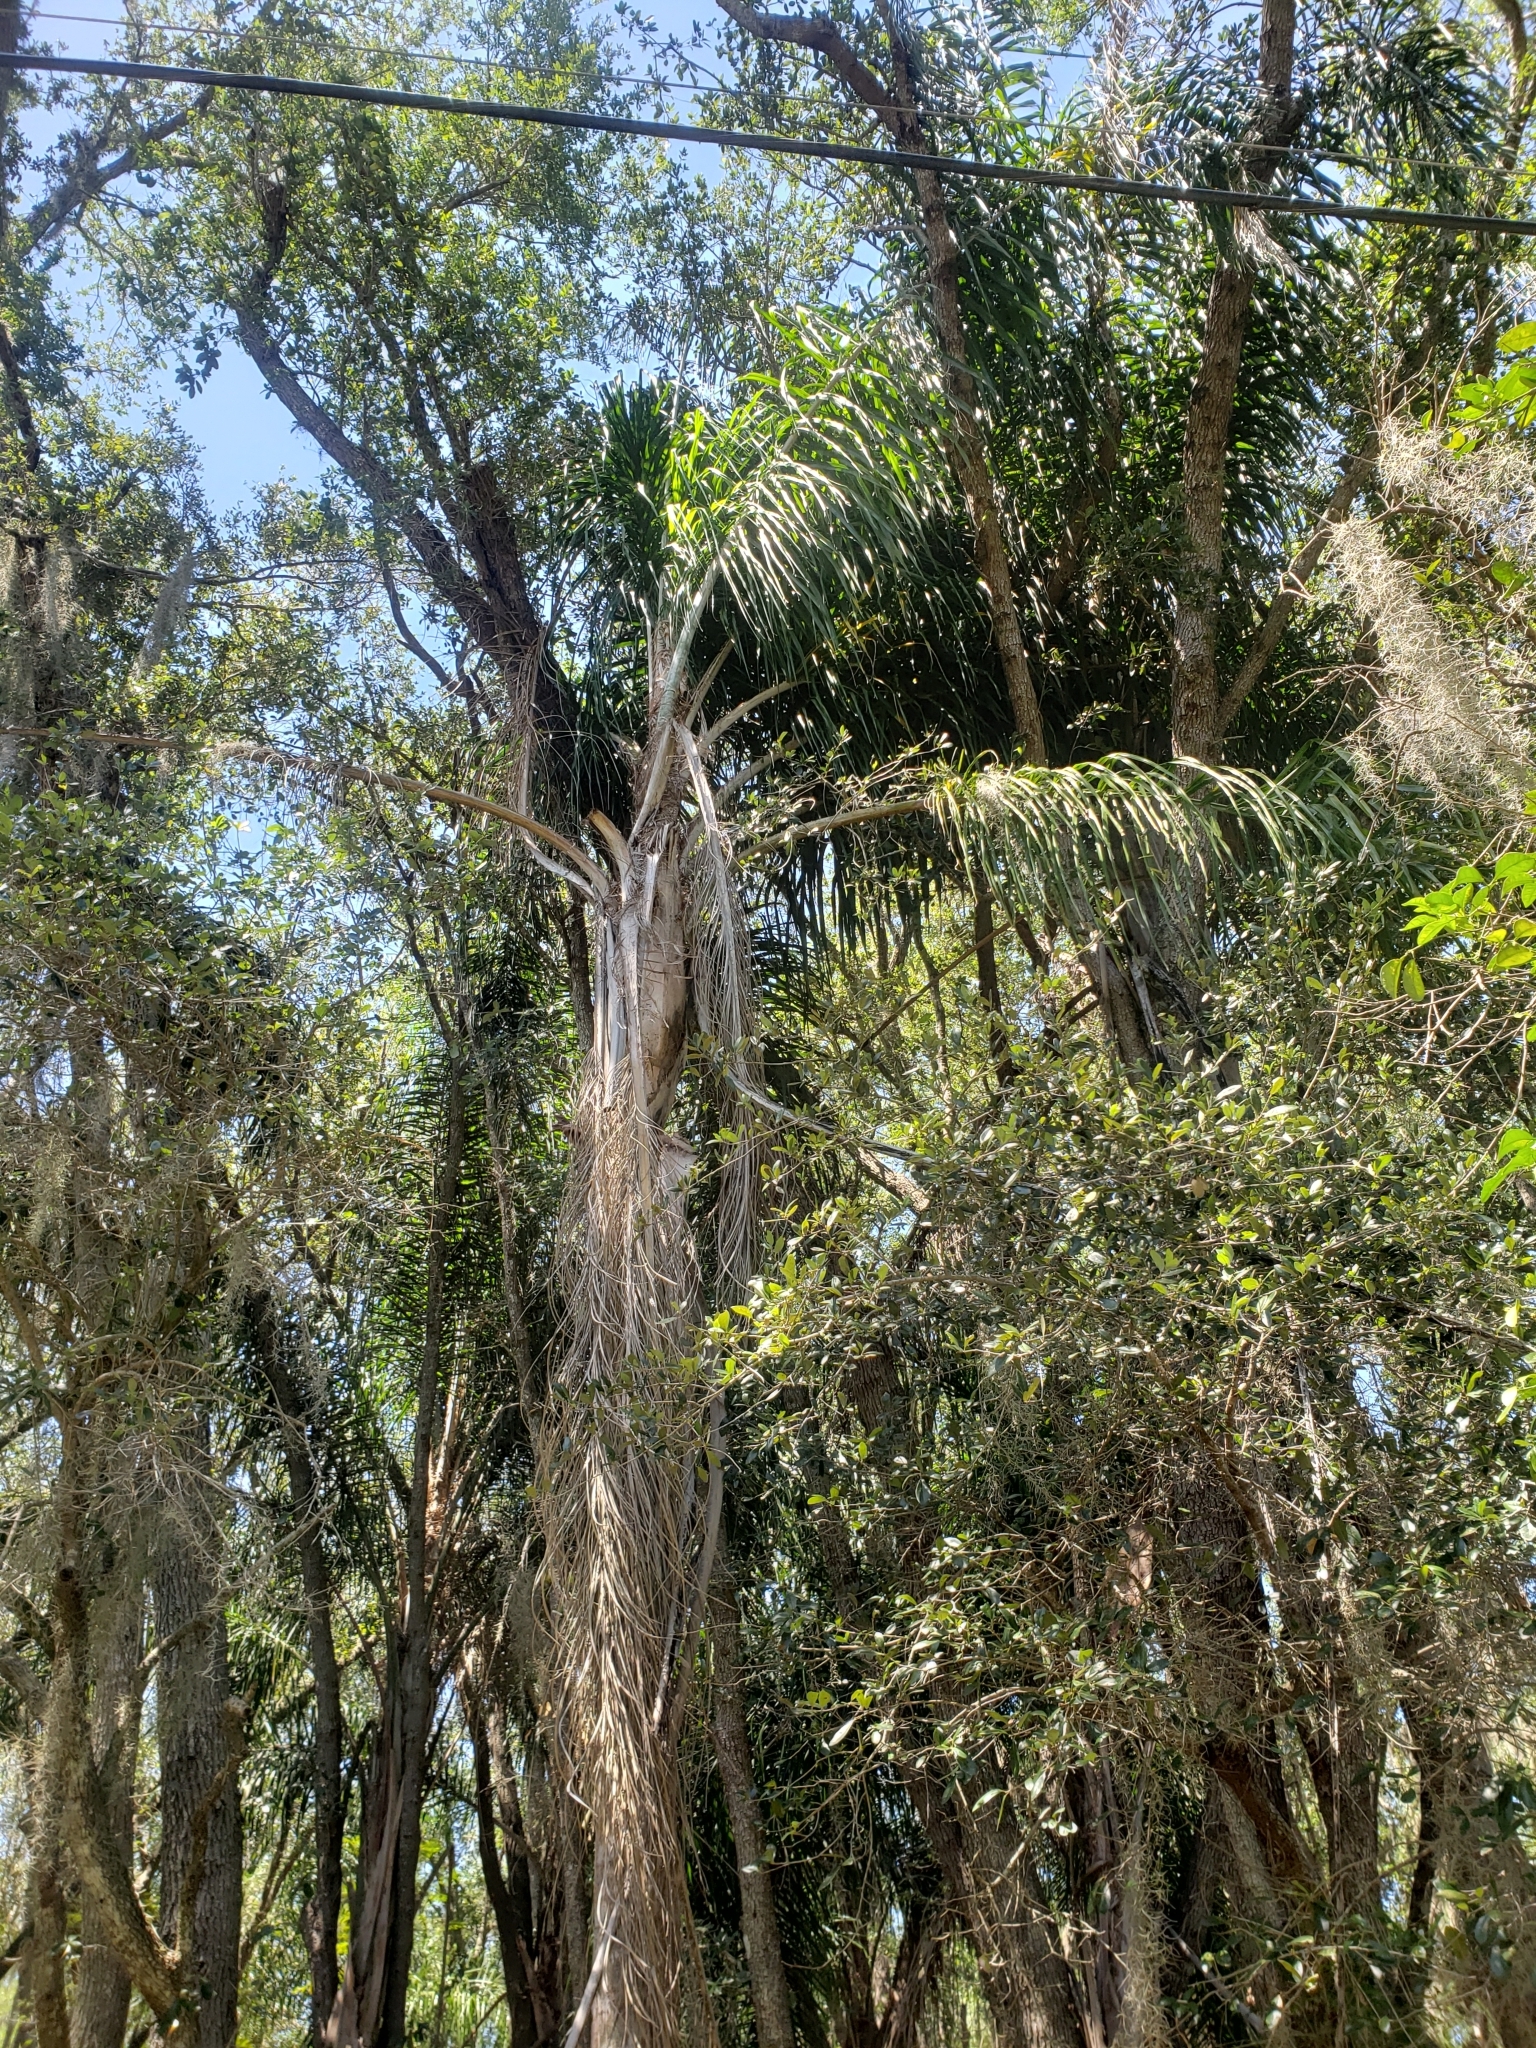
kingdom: Plantae
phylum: Tracheophyta
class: Liliopsida
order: Arecales
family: Arecaceae
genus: Syagrus
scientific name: Syagrus romanzoffiana
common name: Queen palm
